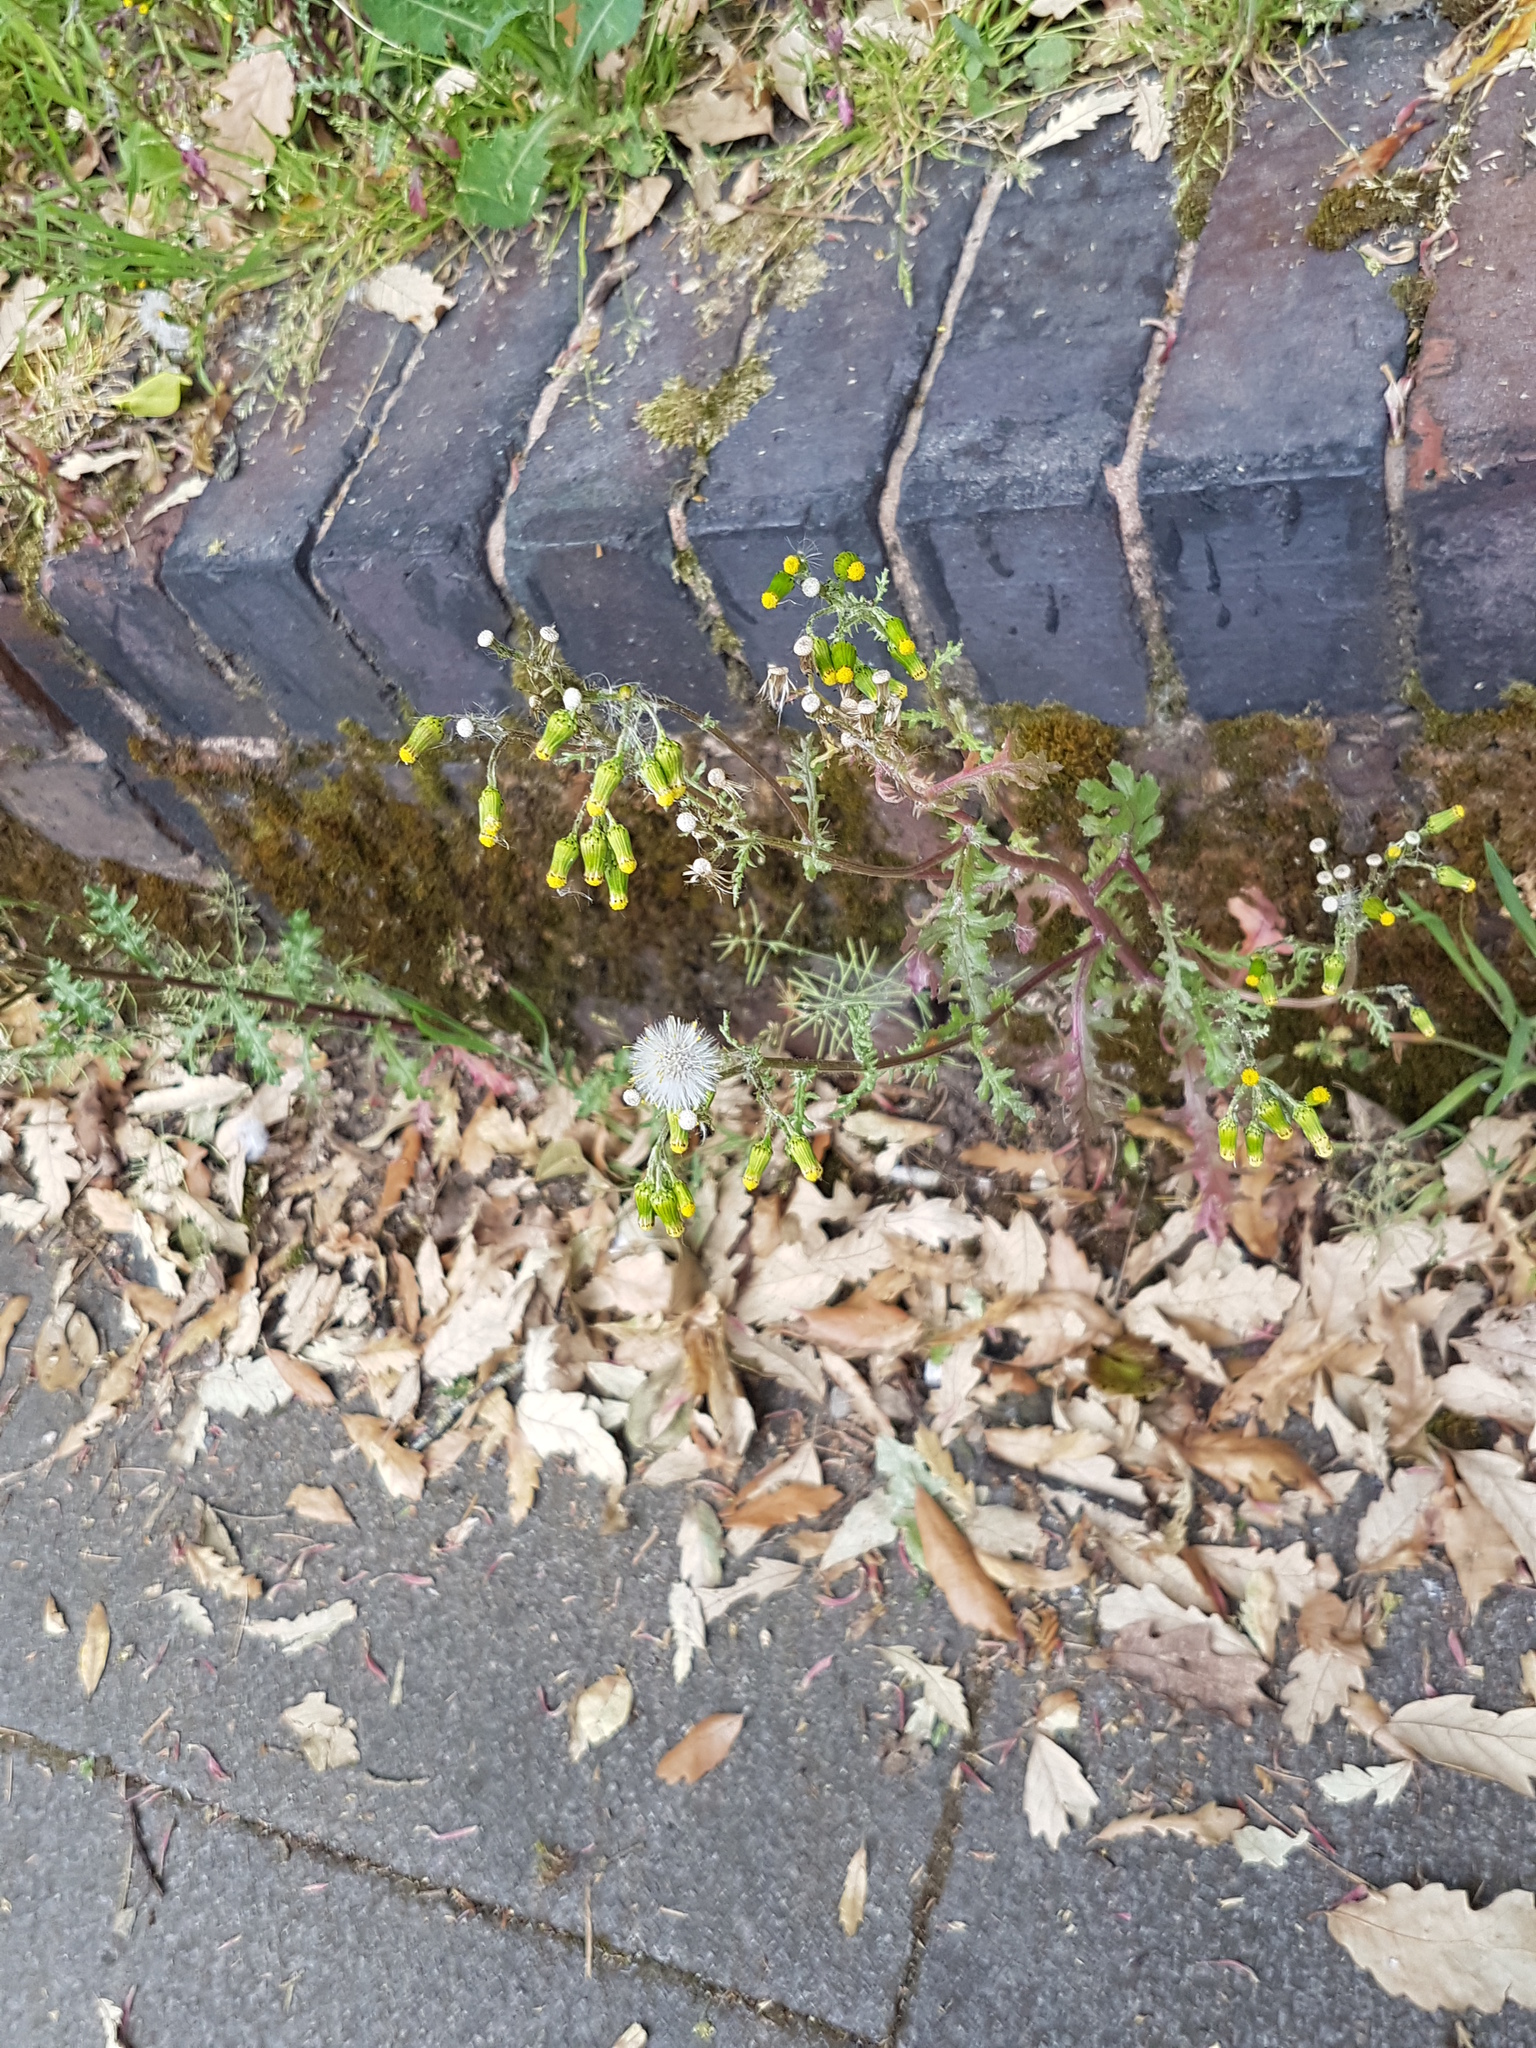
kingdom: Plantae
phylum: Tracheophyta
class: Magnoliopsida
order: Asterales
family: Asteraceae
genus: Senecio
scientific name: Senecio vulgaris
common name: Old-man-in-the-spring
